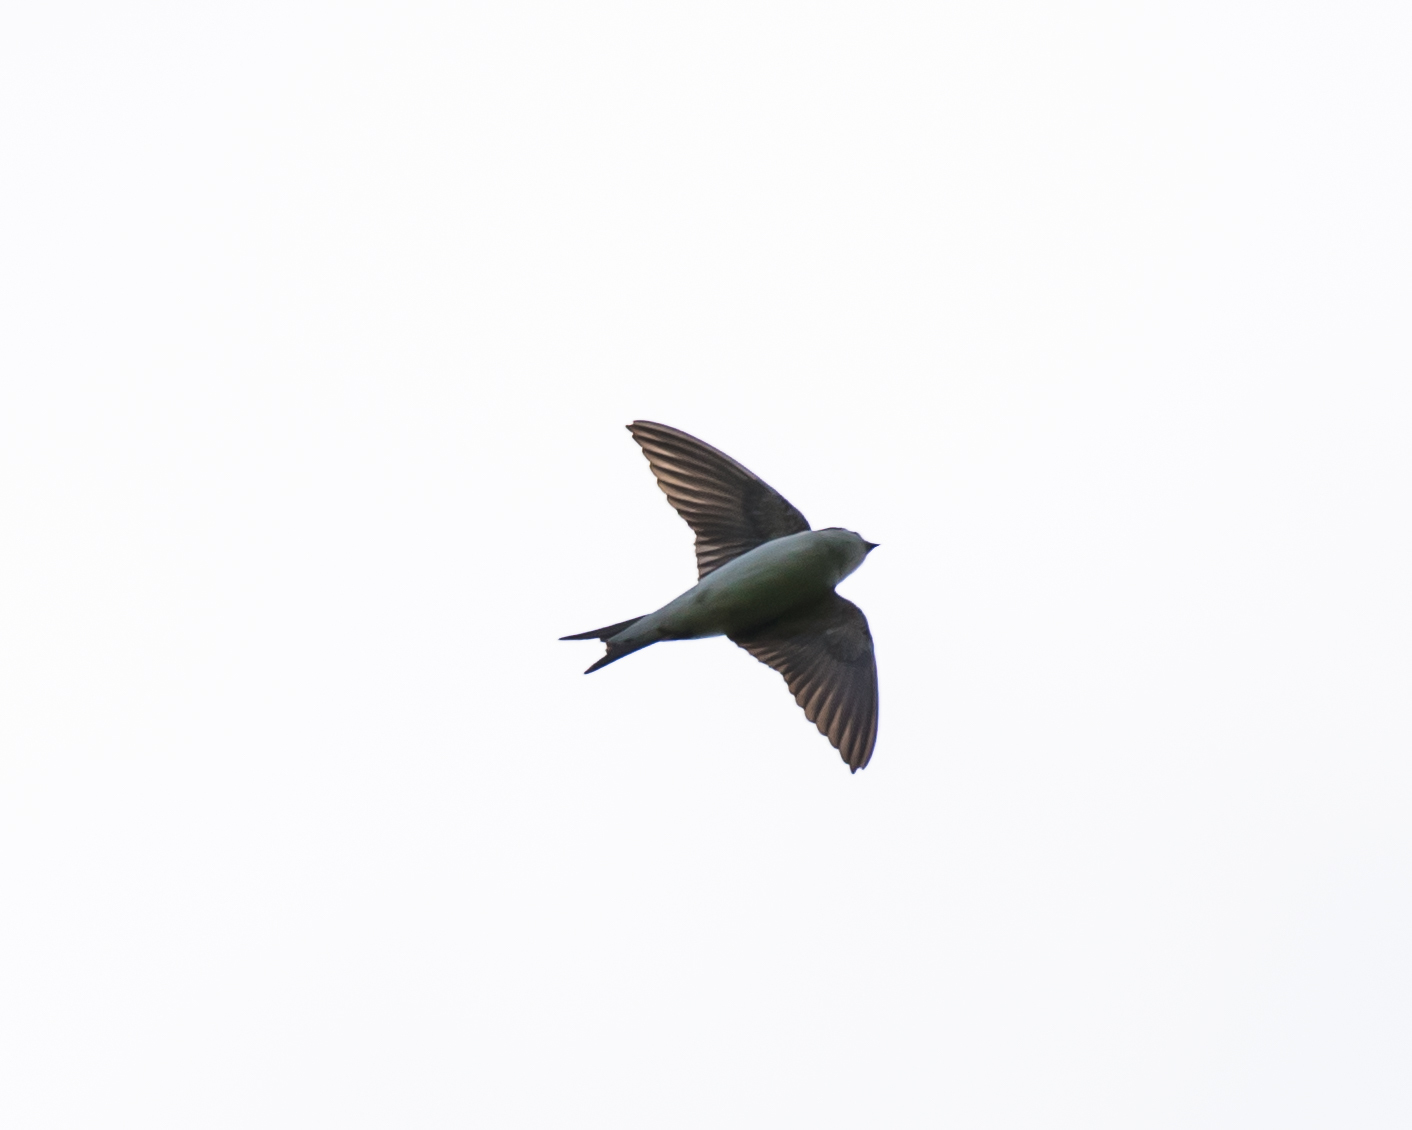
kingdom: Animalia
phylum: Chordata
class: Aves
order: Passeriformes
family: Hirundinidae
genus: Delichon
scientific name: Delichon urbicum
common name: Common house martin
